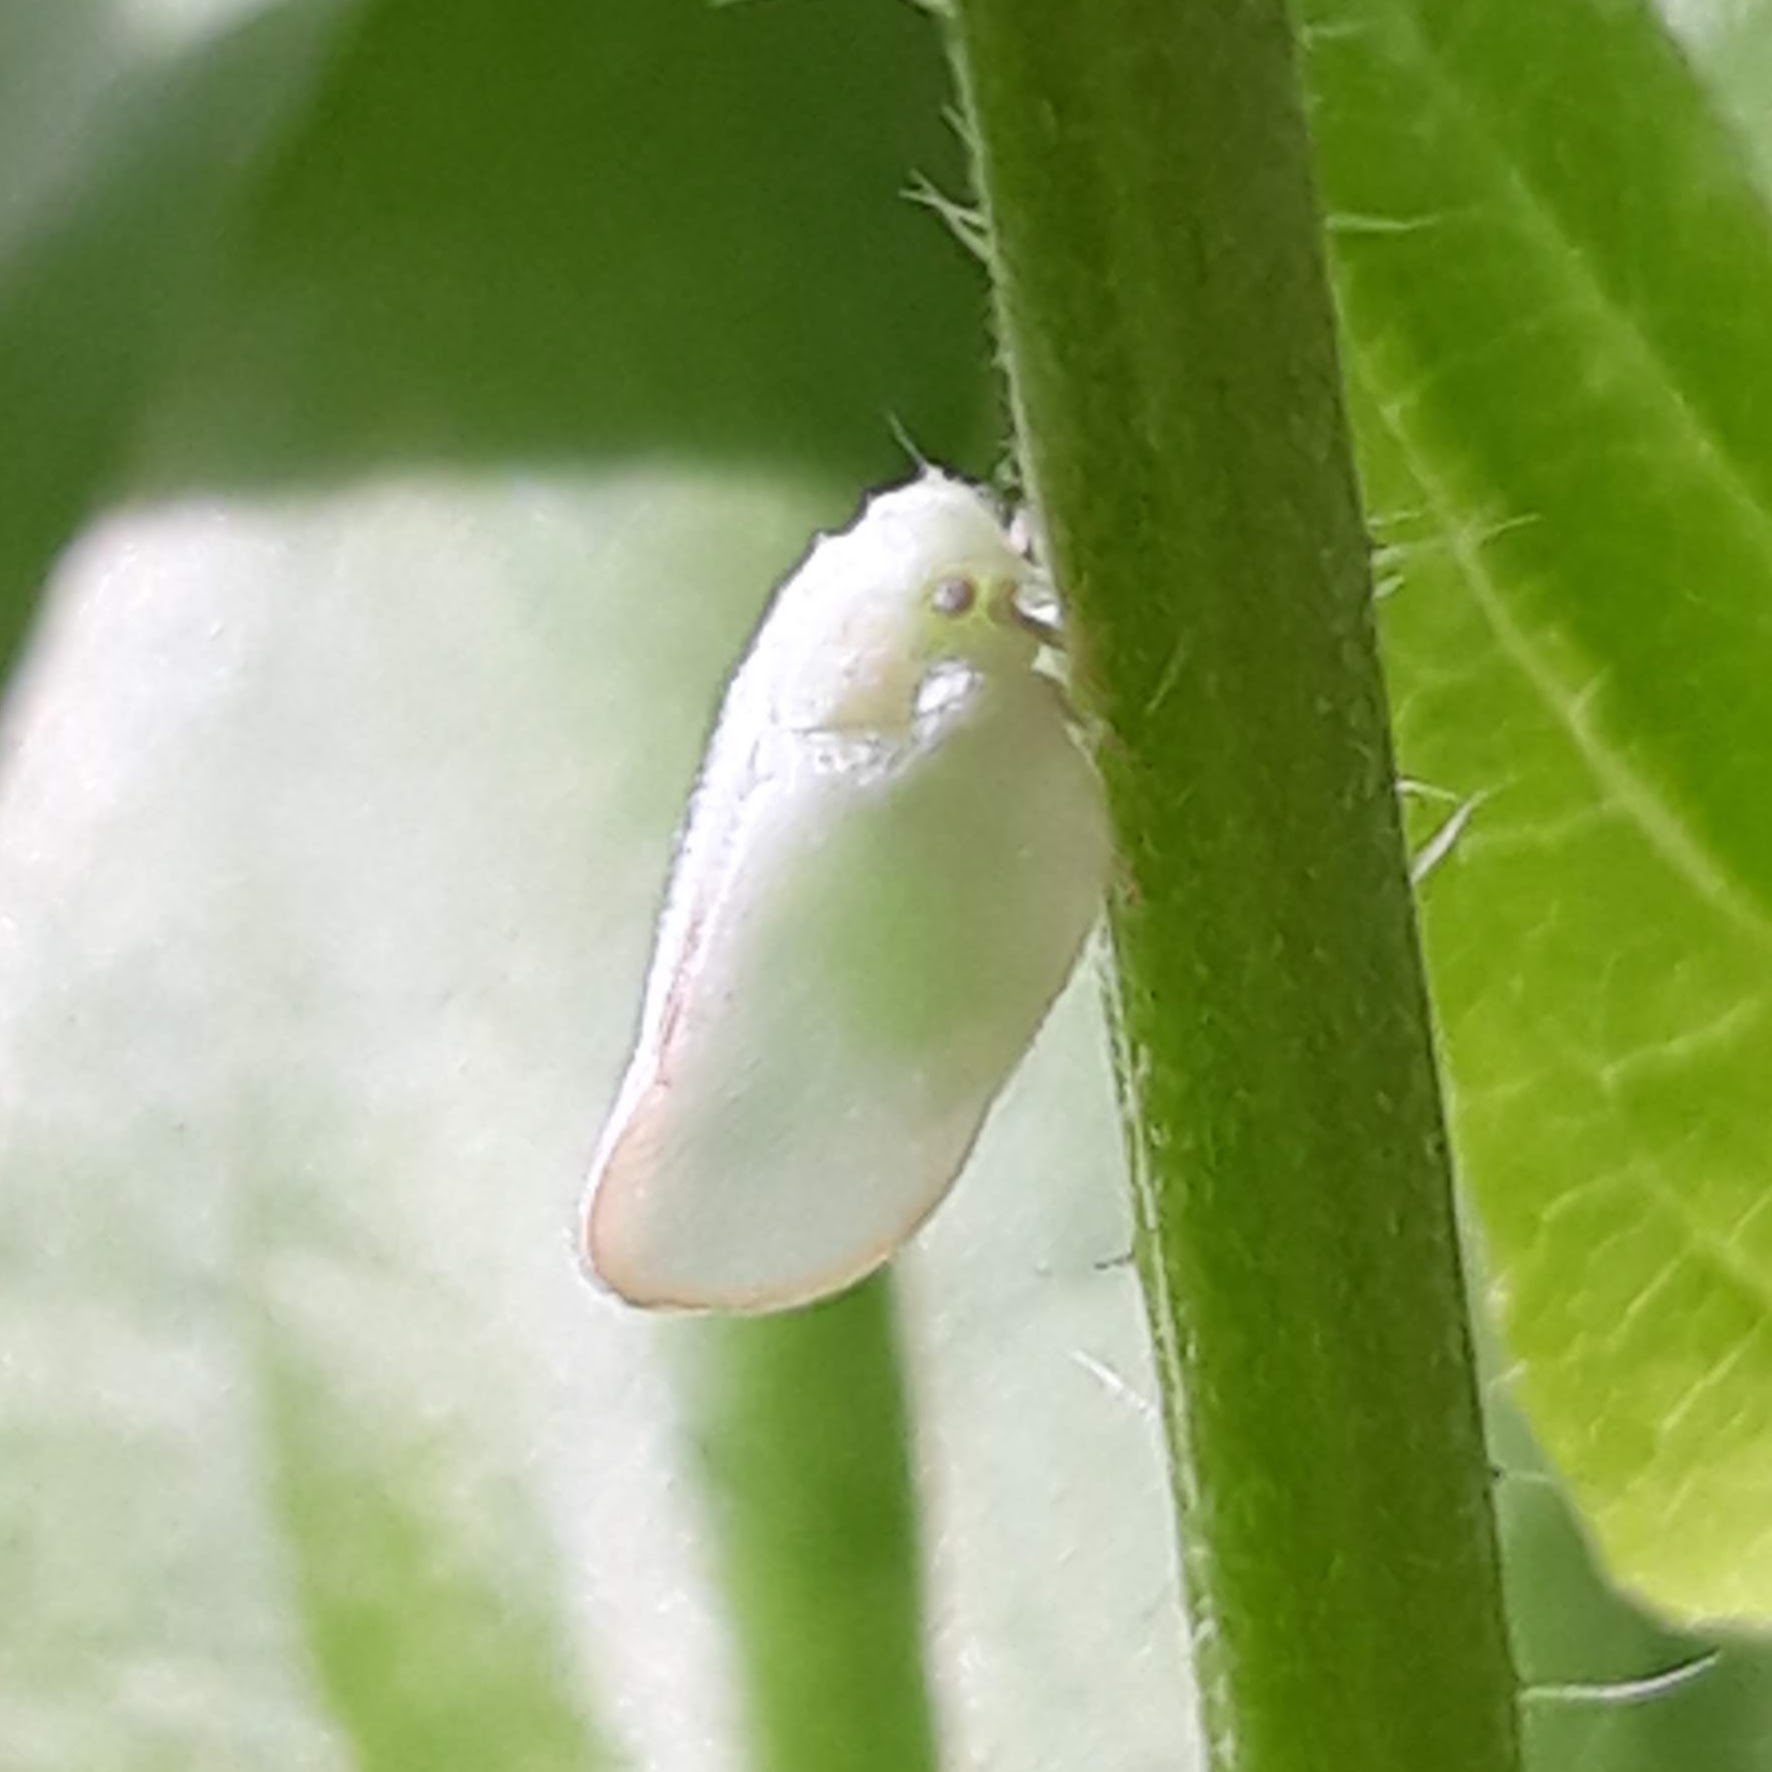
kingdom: Animalia
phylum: Arthropoda
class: Insecta
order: Hemiptera
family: Flatidae
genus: Ormenoides
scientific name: Ormenoides venusta
